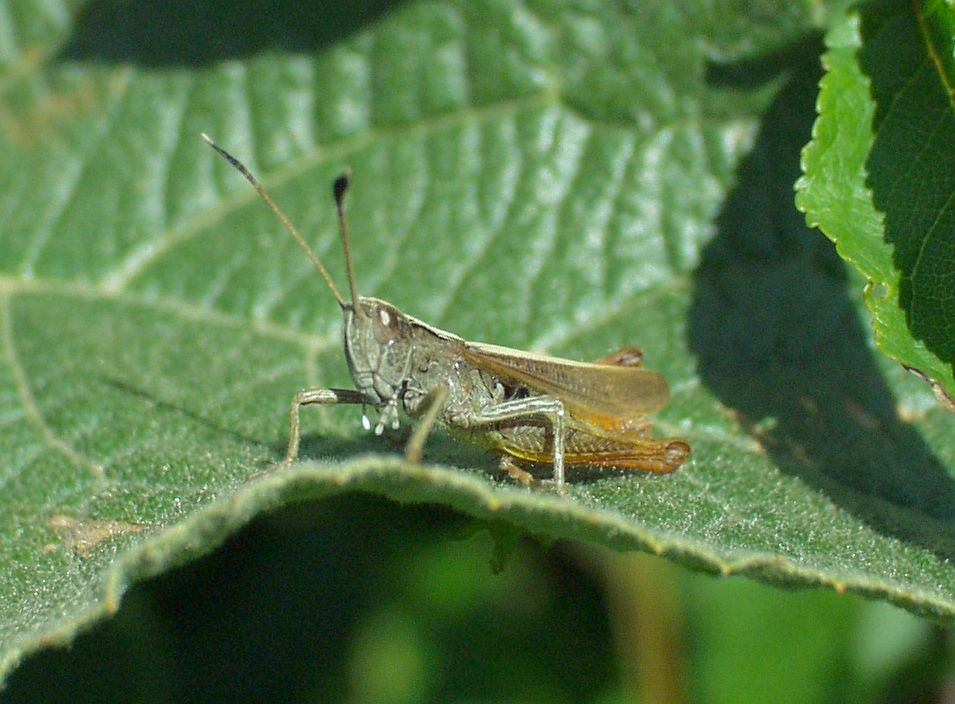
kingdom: Animalia
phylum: Arthropoda
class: Insecta
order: Orthoptera
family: Acrididae
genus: Gomphocerippus
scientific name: Gomphocerippus rufus
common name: Rufous grasshopper
